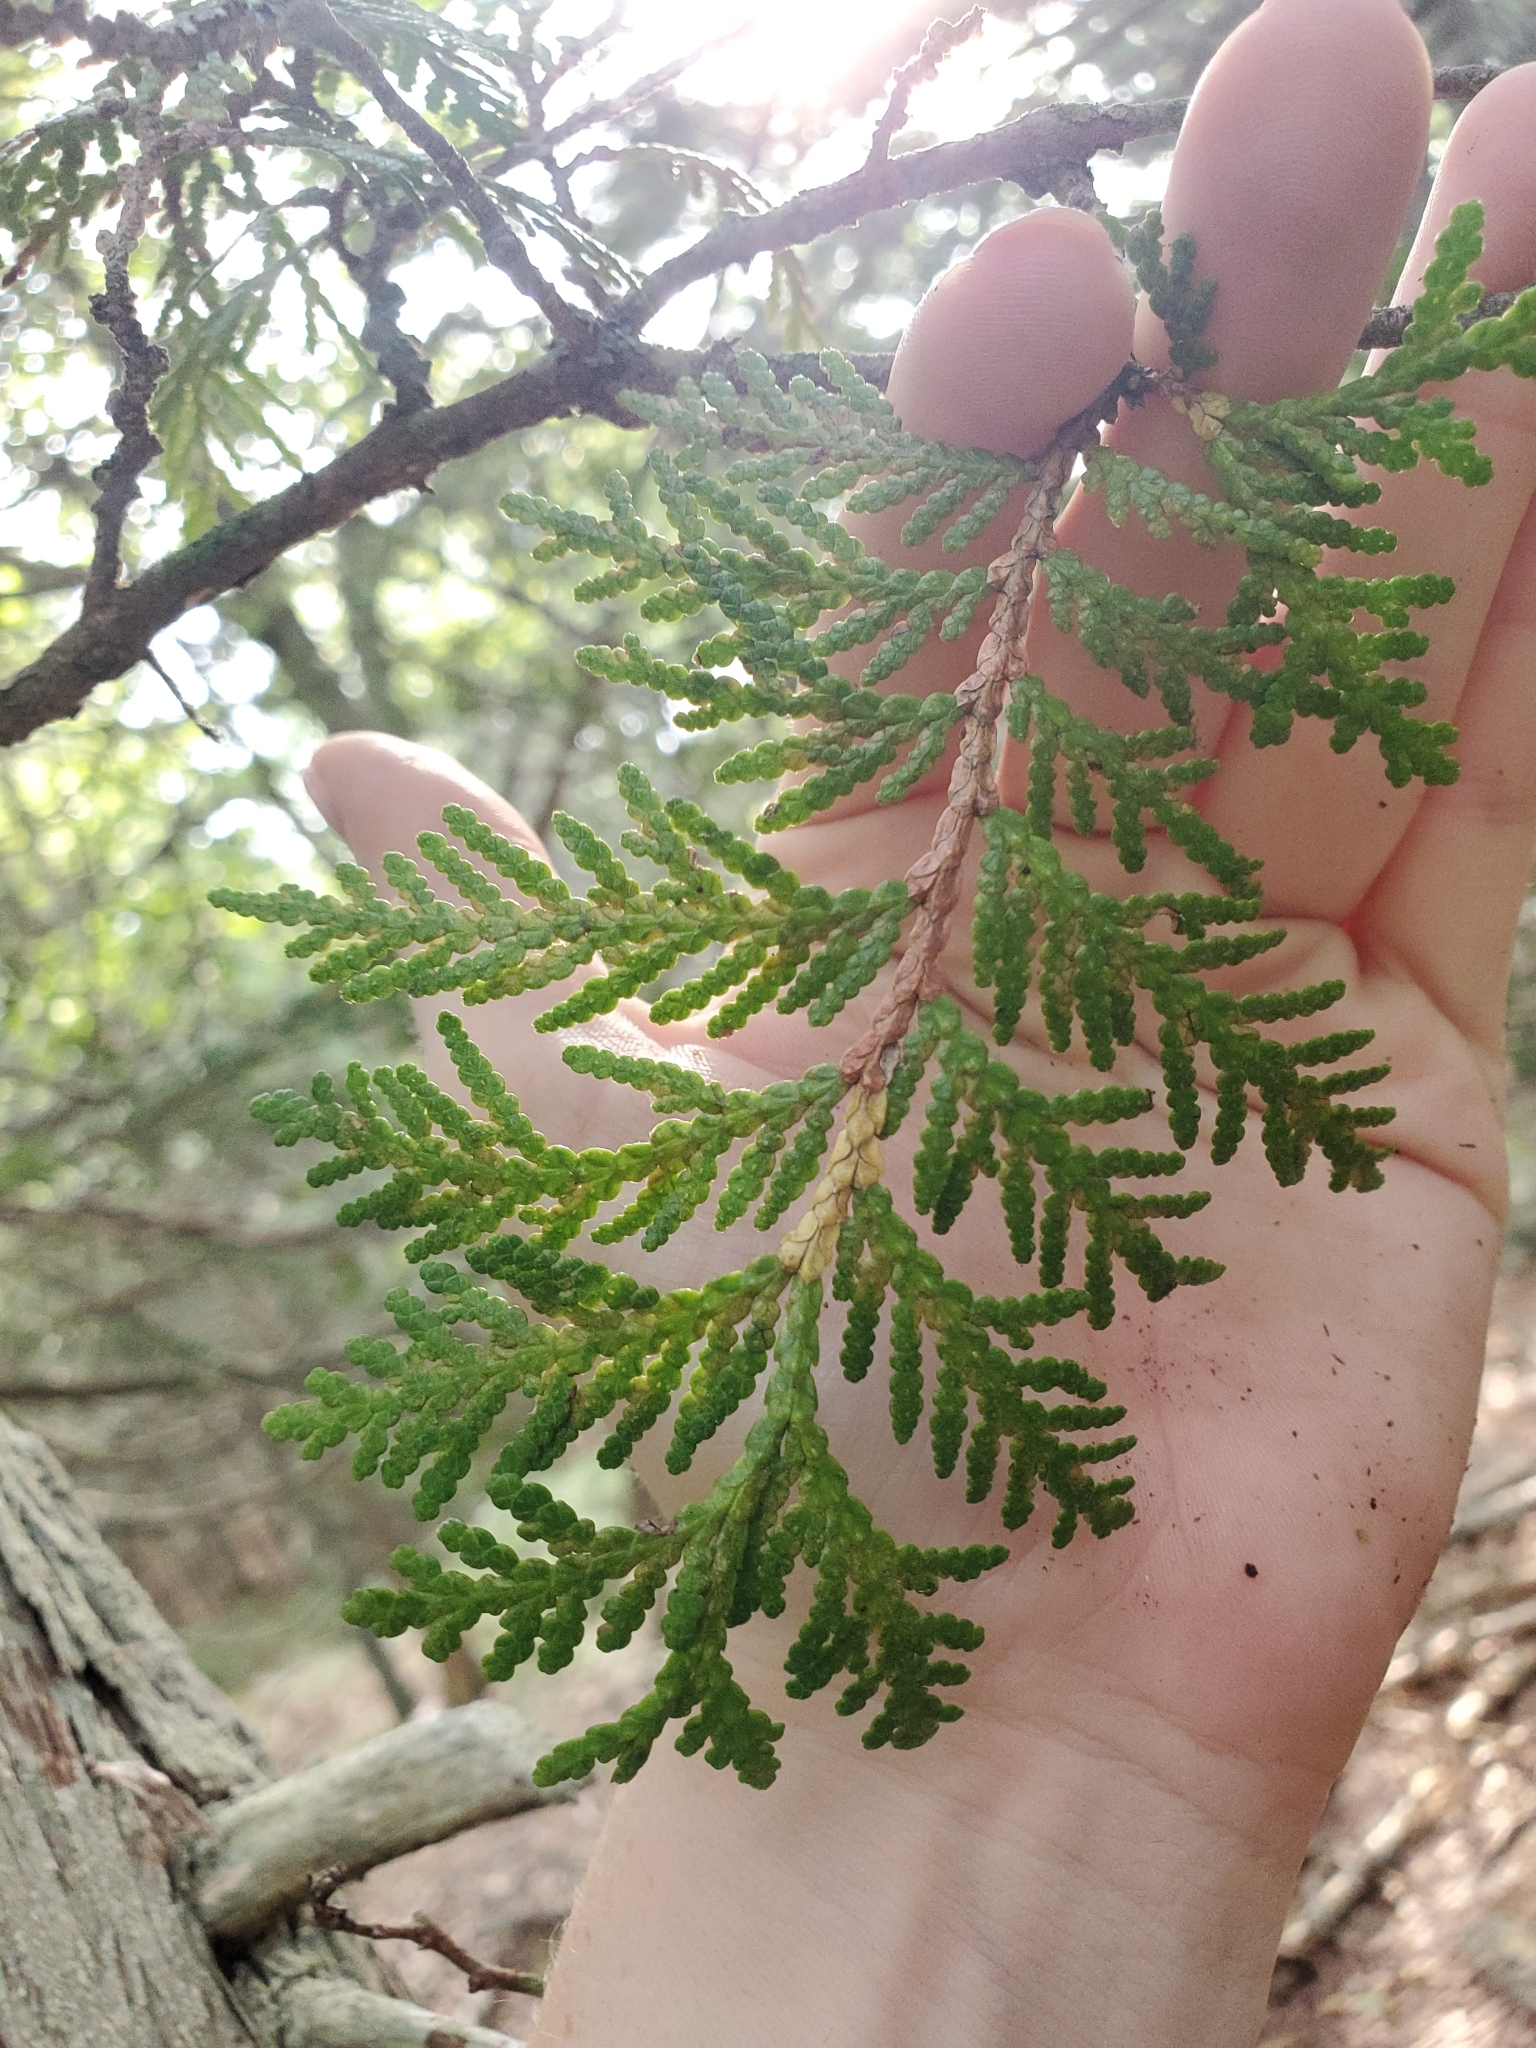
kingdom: Plantae
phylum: Tracheophyta
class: Pinopsida
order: Pinales
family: Cupressaceae
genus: Thuja
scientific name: Thuja occidentalis
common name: Northern white-cedar
